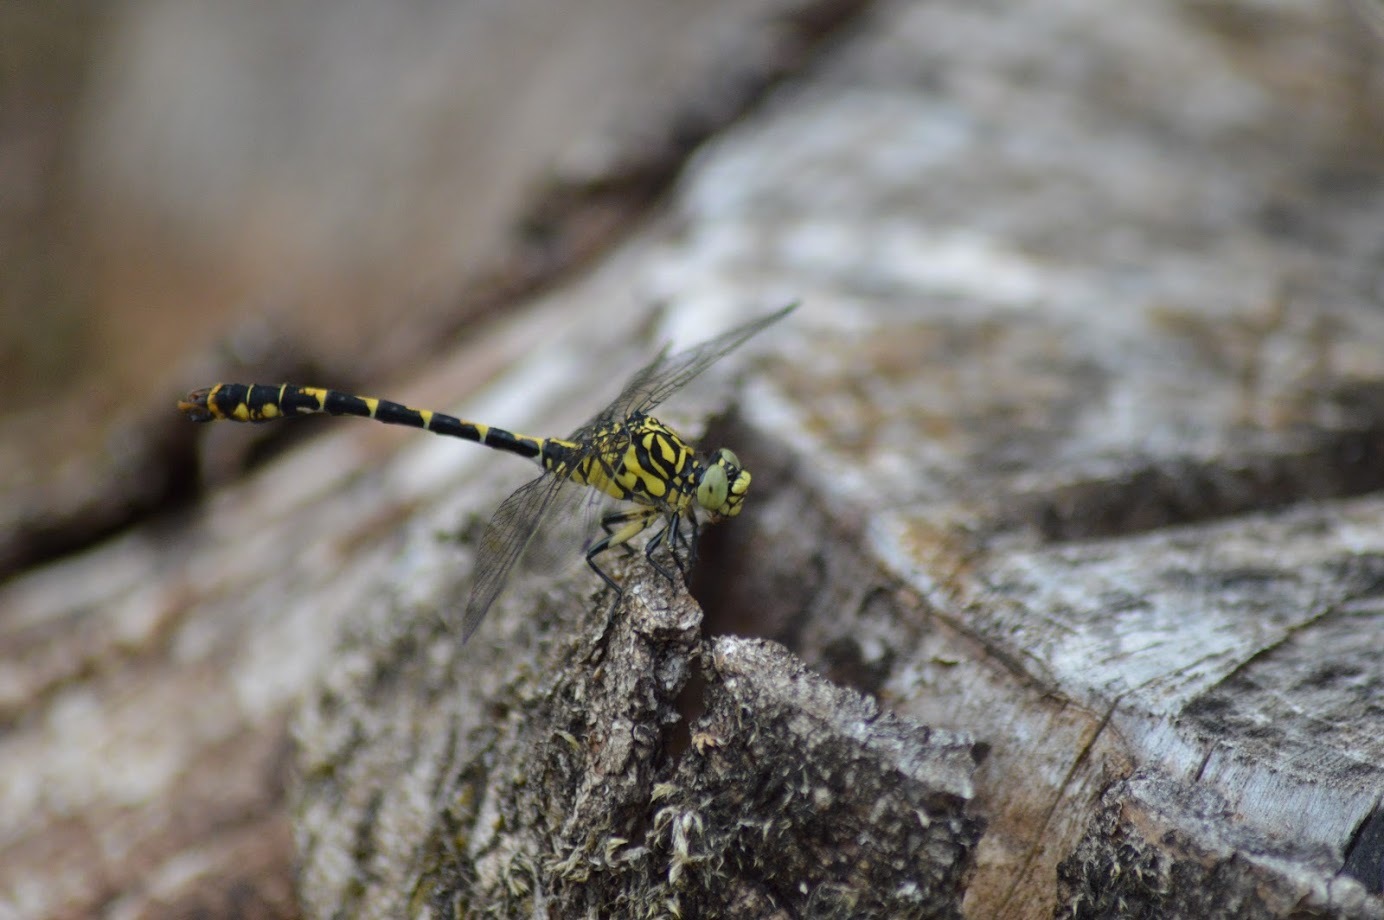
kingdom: Animalia
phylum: Arthropoda
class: Insecta
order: Odonata
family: Gomphidae
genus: Onychogomphus
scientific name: Onychogomphus forcipatus
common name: Small pincertail
